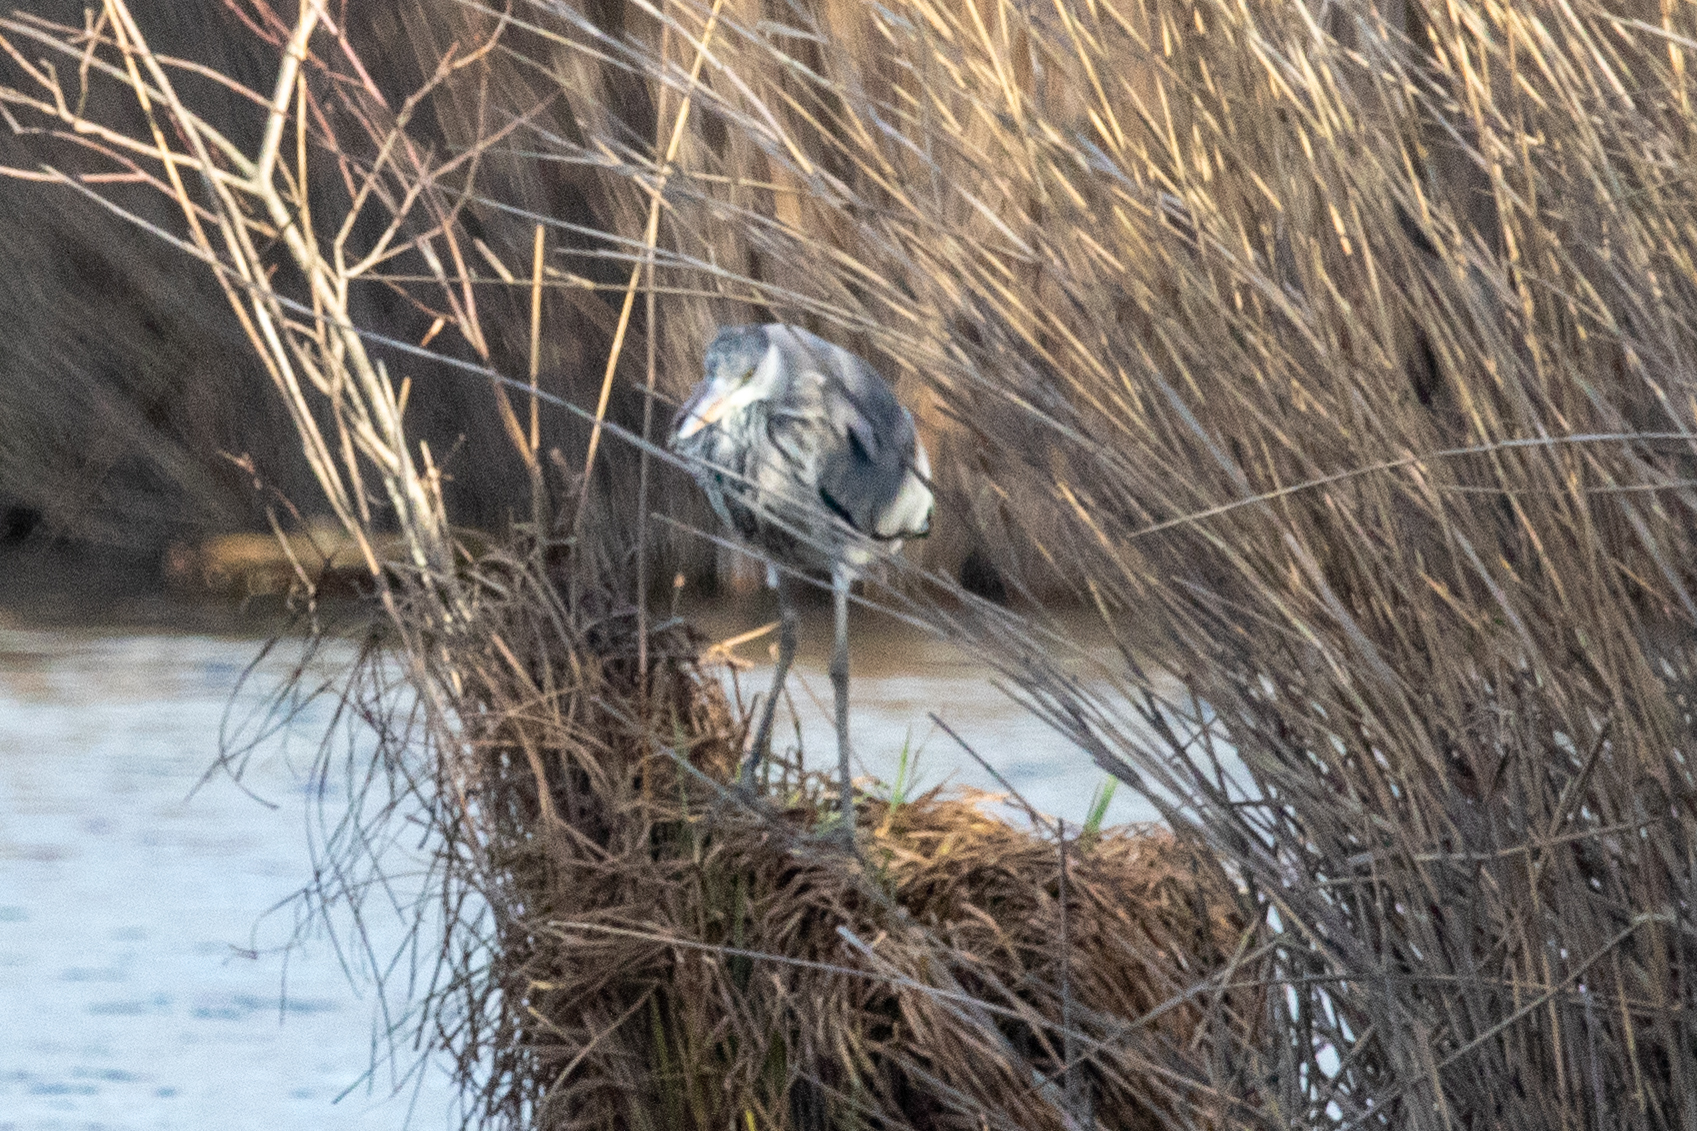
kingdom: Animalia
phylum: Chordata
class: Aves
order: Pelecaniformes
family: Ardeidae
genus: Ardea
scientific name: Ardea cinerea
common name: Grey heron
